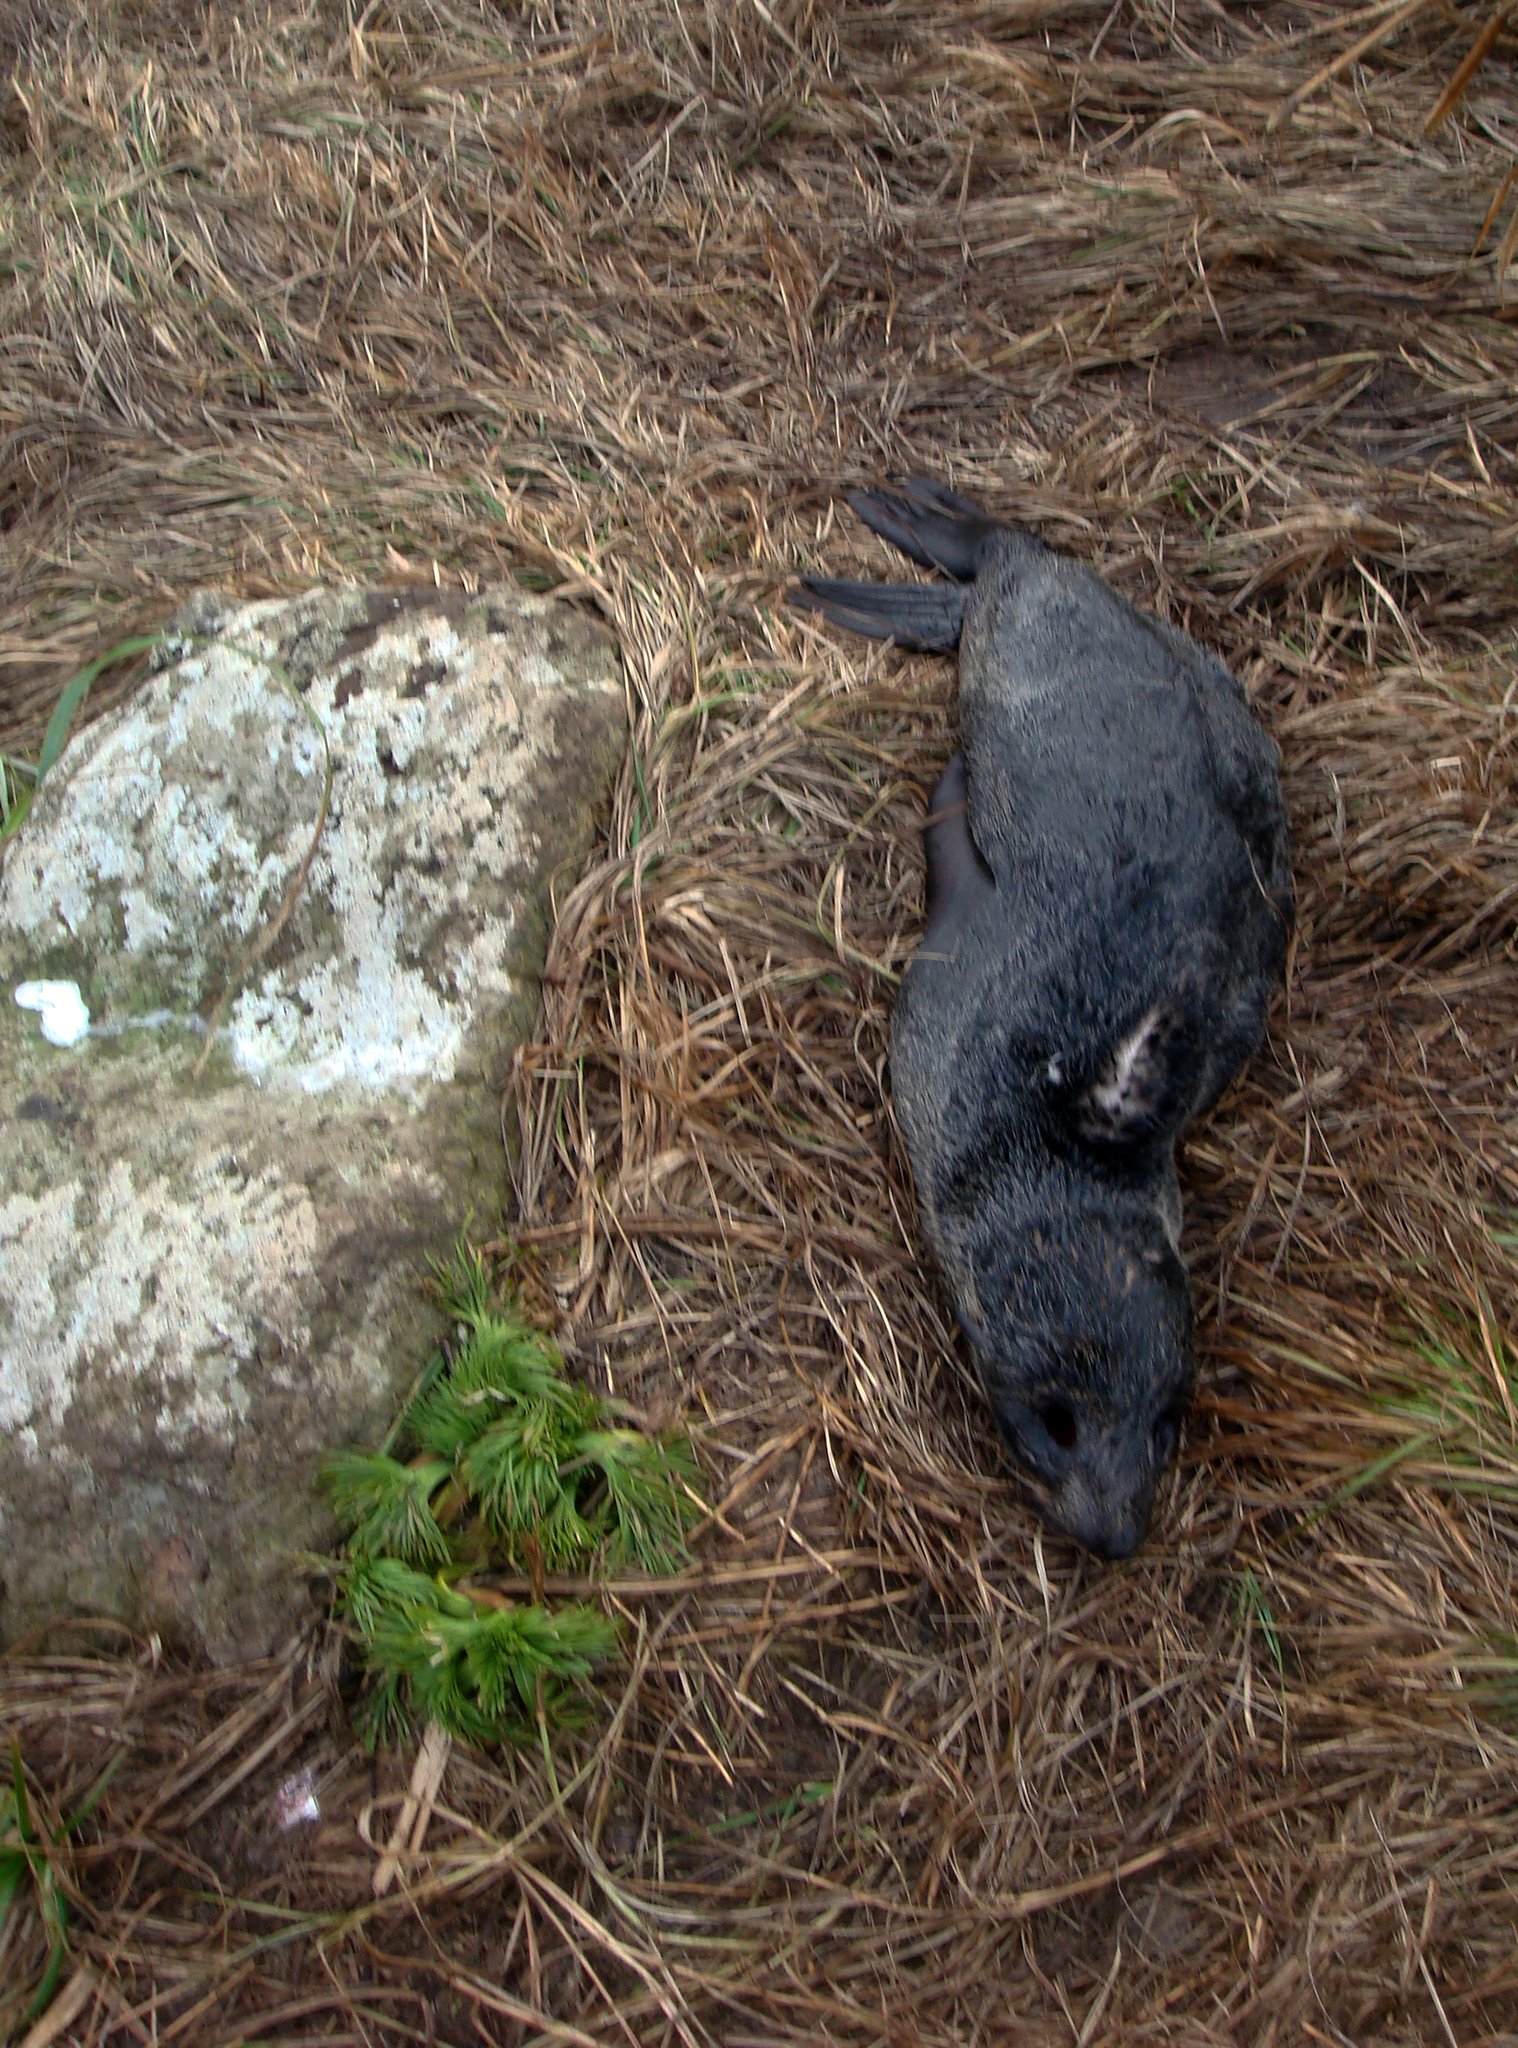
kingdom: Plantae
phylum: Tracheophyta
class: Magnoliopsida
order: Apiales
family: Apiaceae
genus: Aciphylla
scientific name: Aciphylla dieffenbachii
